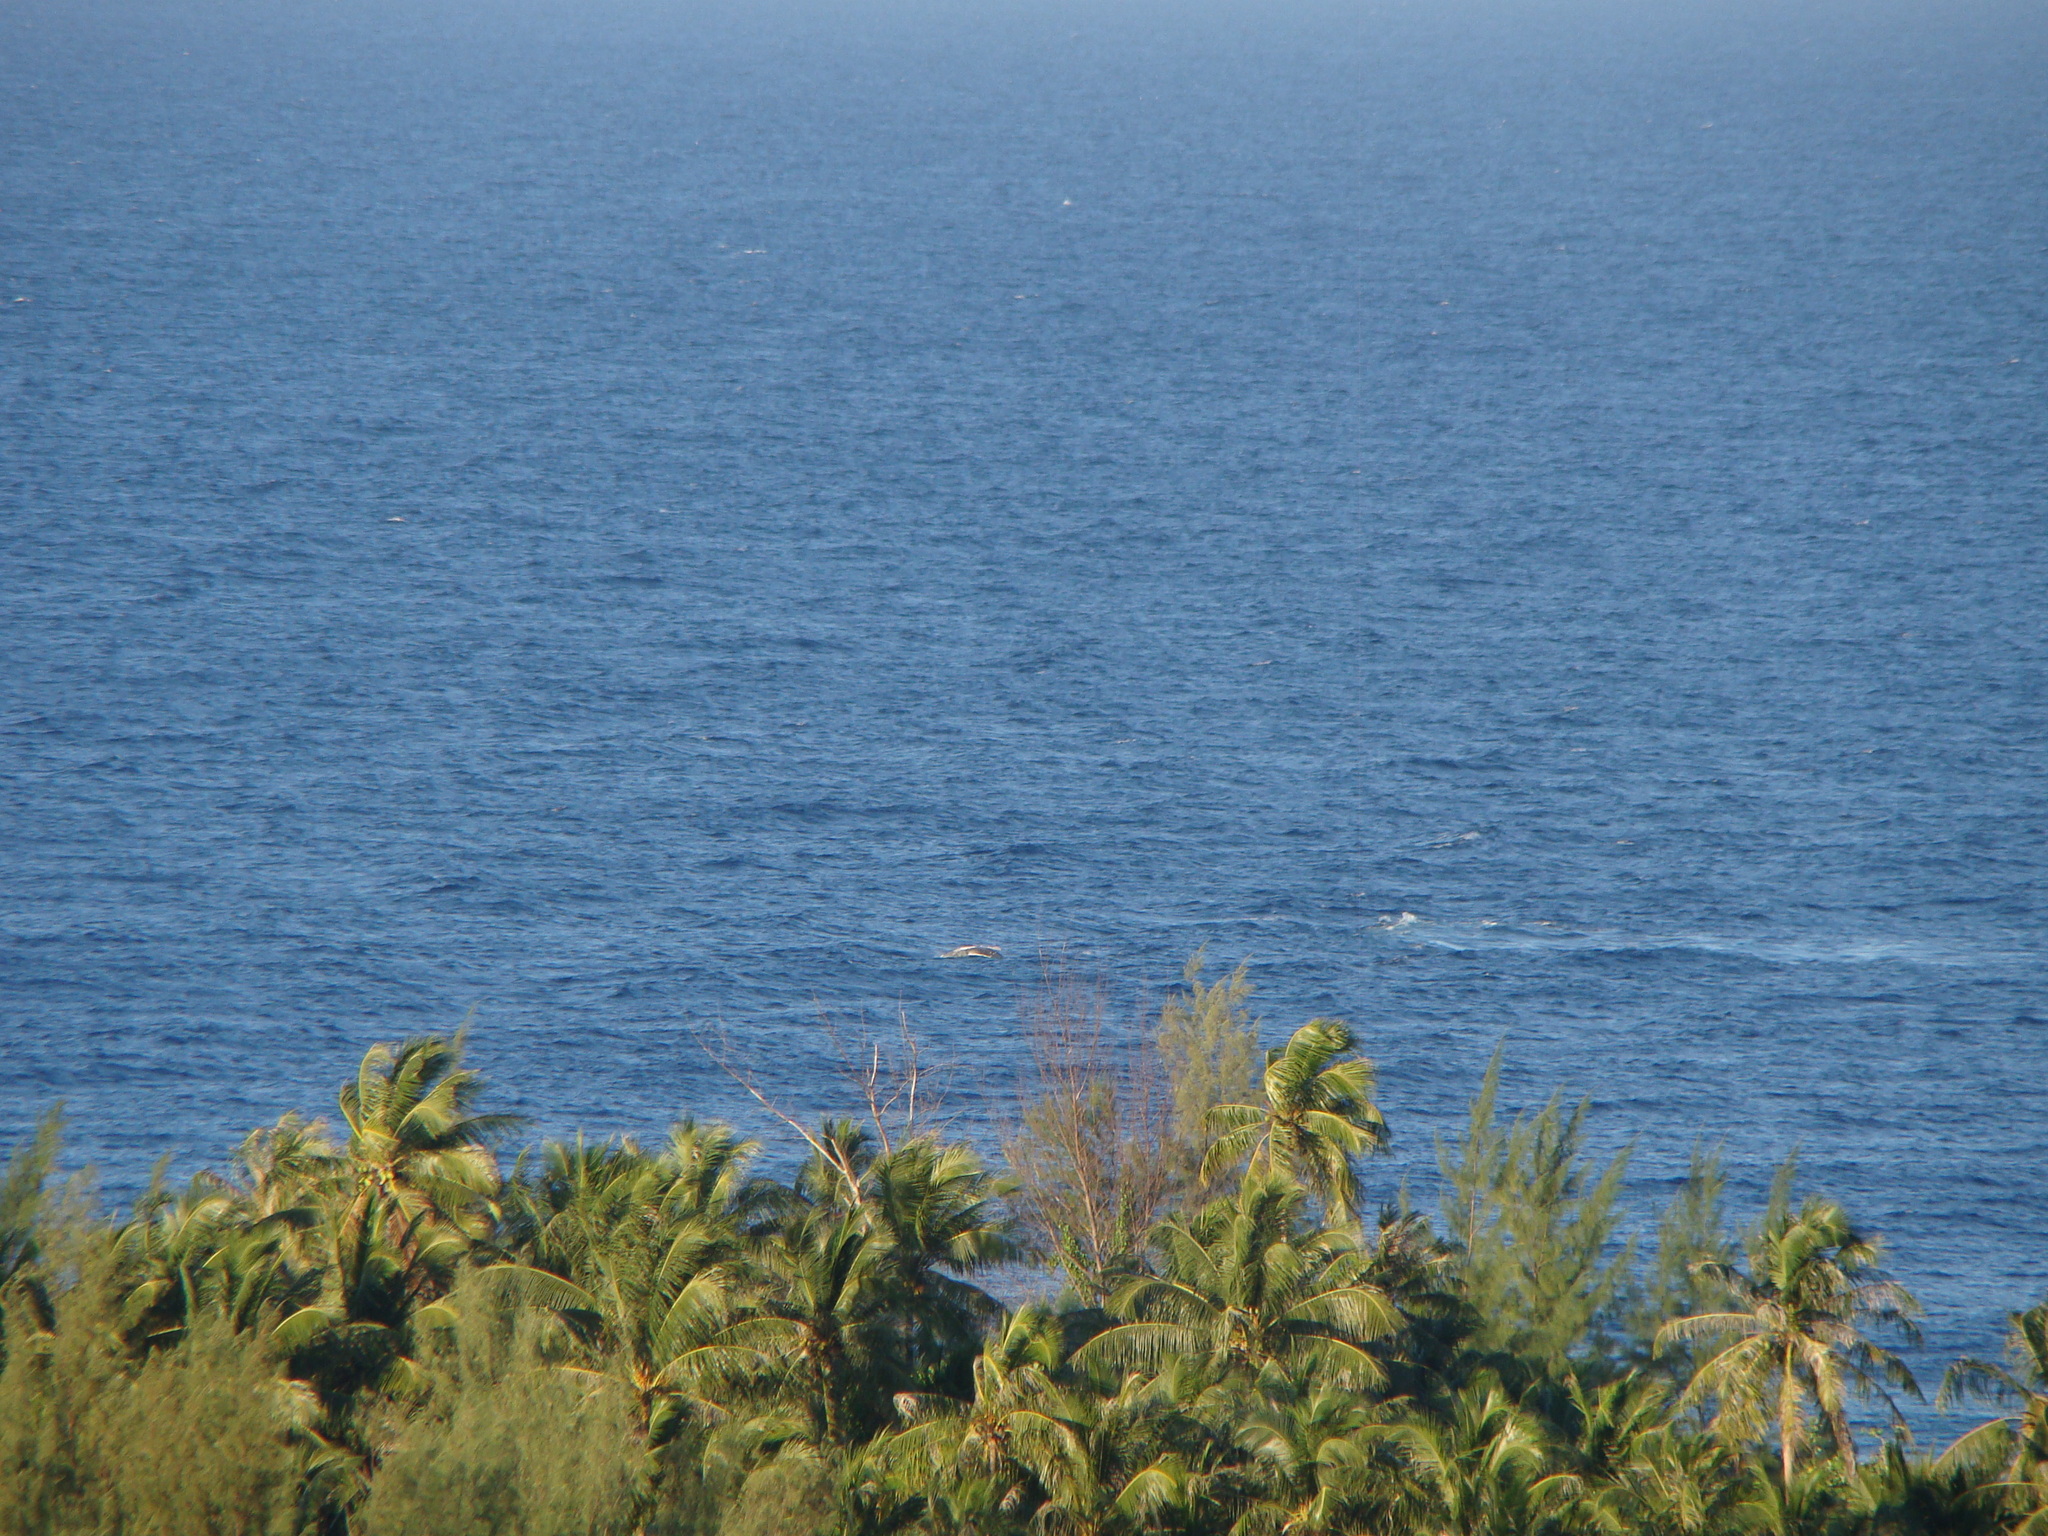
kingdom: Animalia
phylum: Chordata
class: Mammalia
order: Cetacea
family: Balaenopteridae
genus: Megaptera
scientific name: Megaptera novaeangliae
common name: Humpback whale
